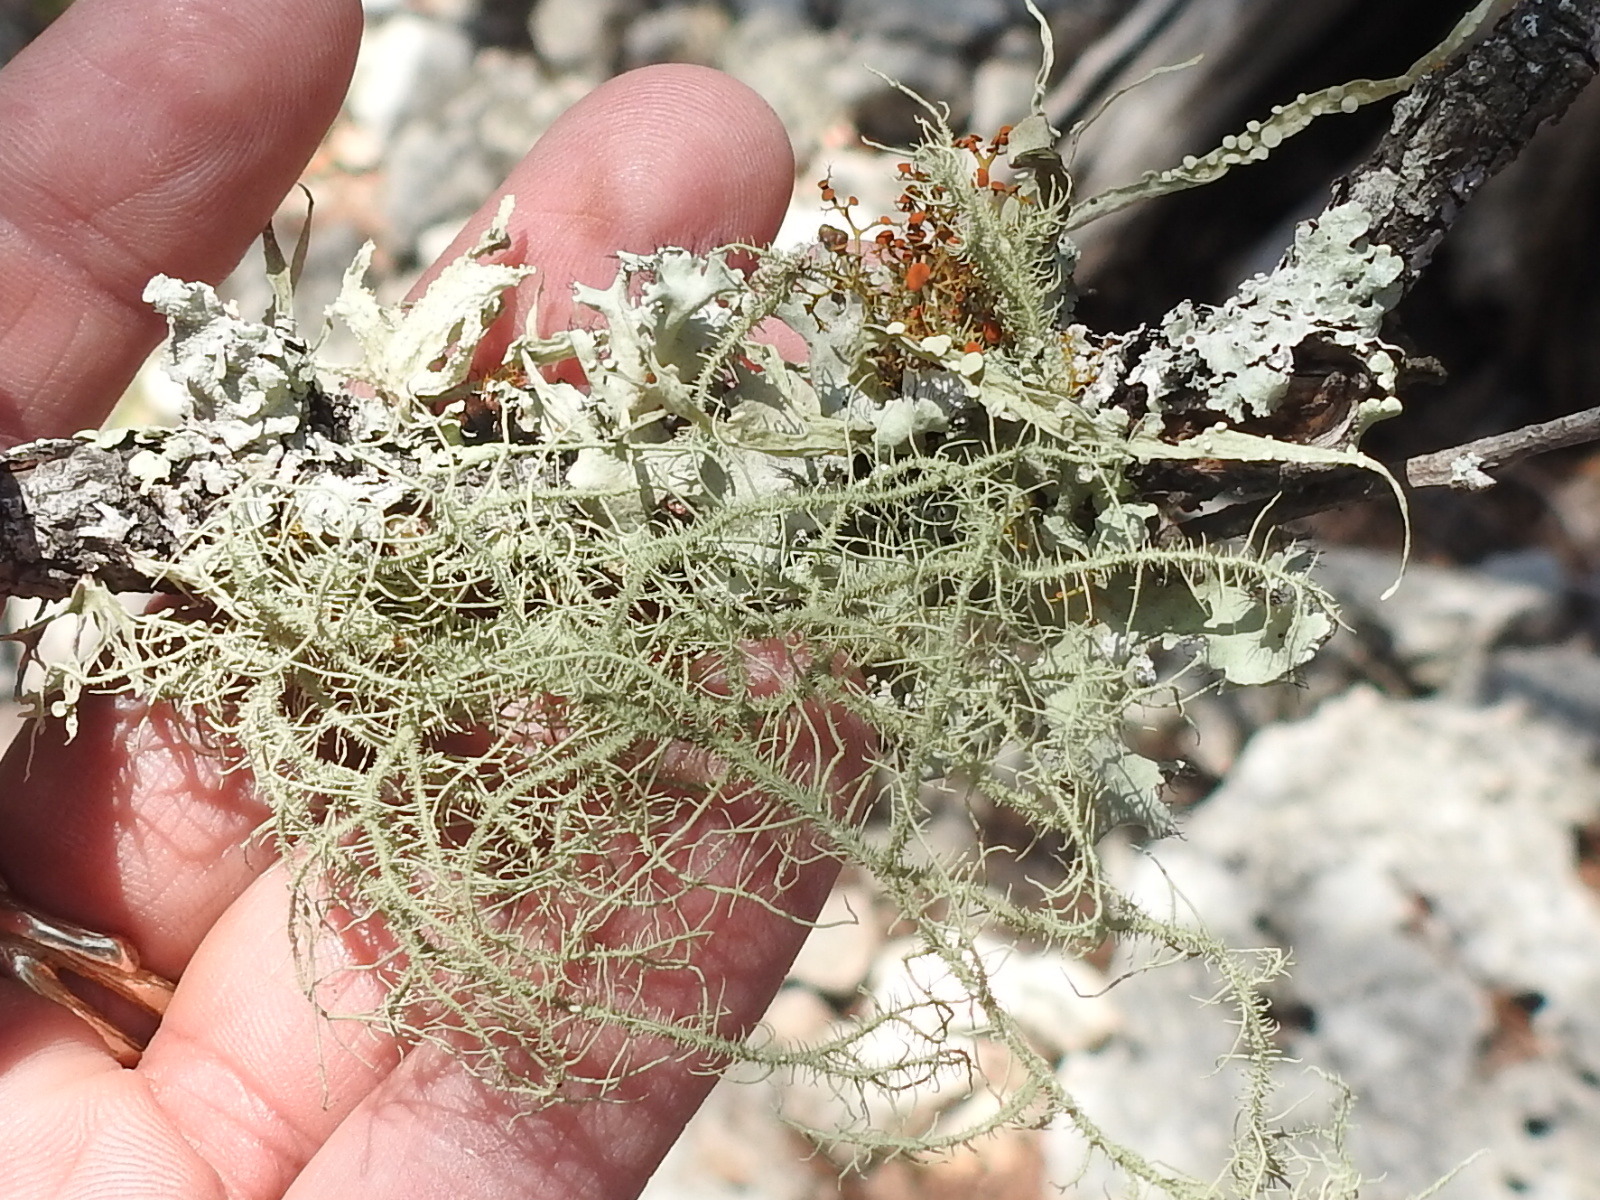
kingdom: Fungi
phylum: Ascomycota
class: Lecanoromycetes
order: Lecanorales
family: Parmeliaceae
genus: Usnea
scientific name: Usnea strigosa
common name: Bushy beard lichen
